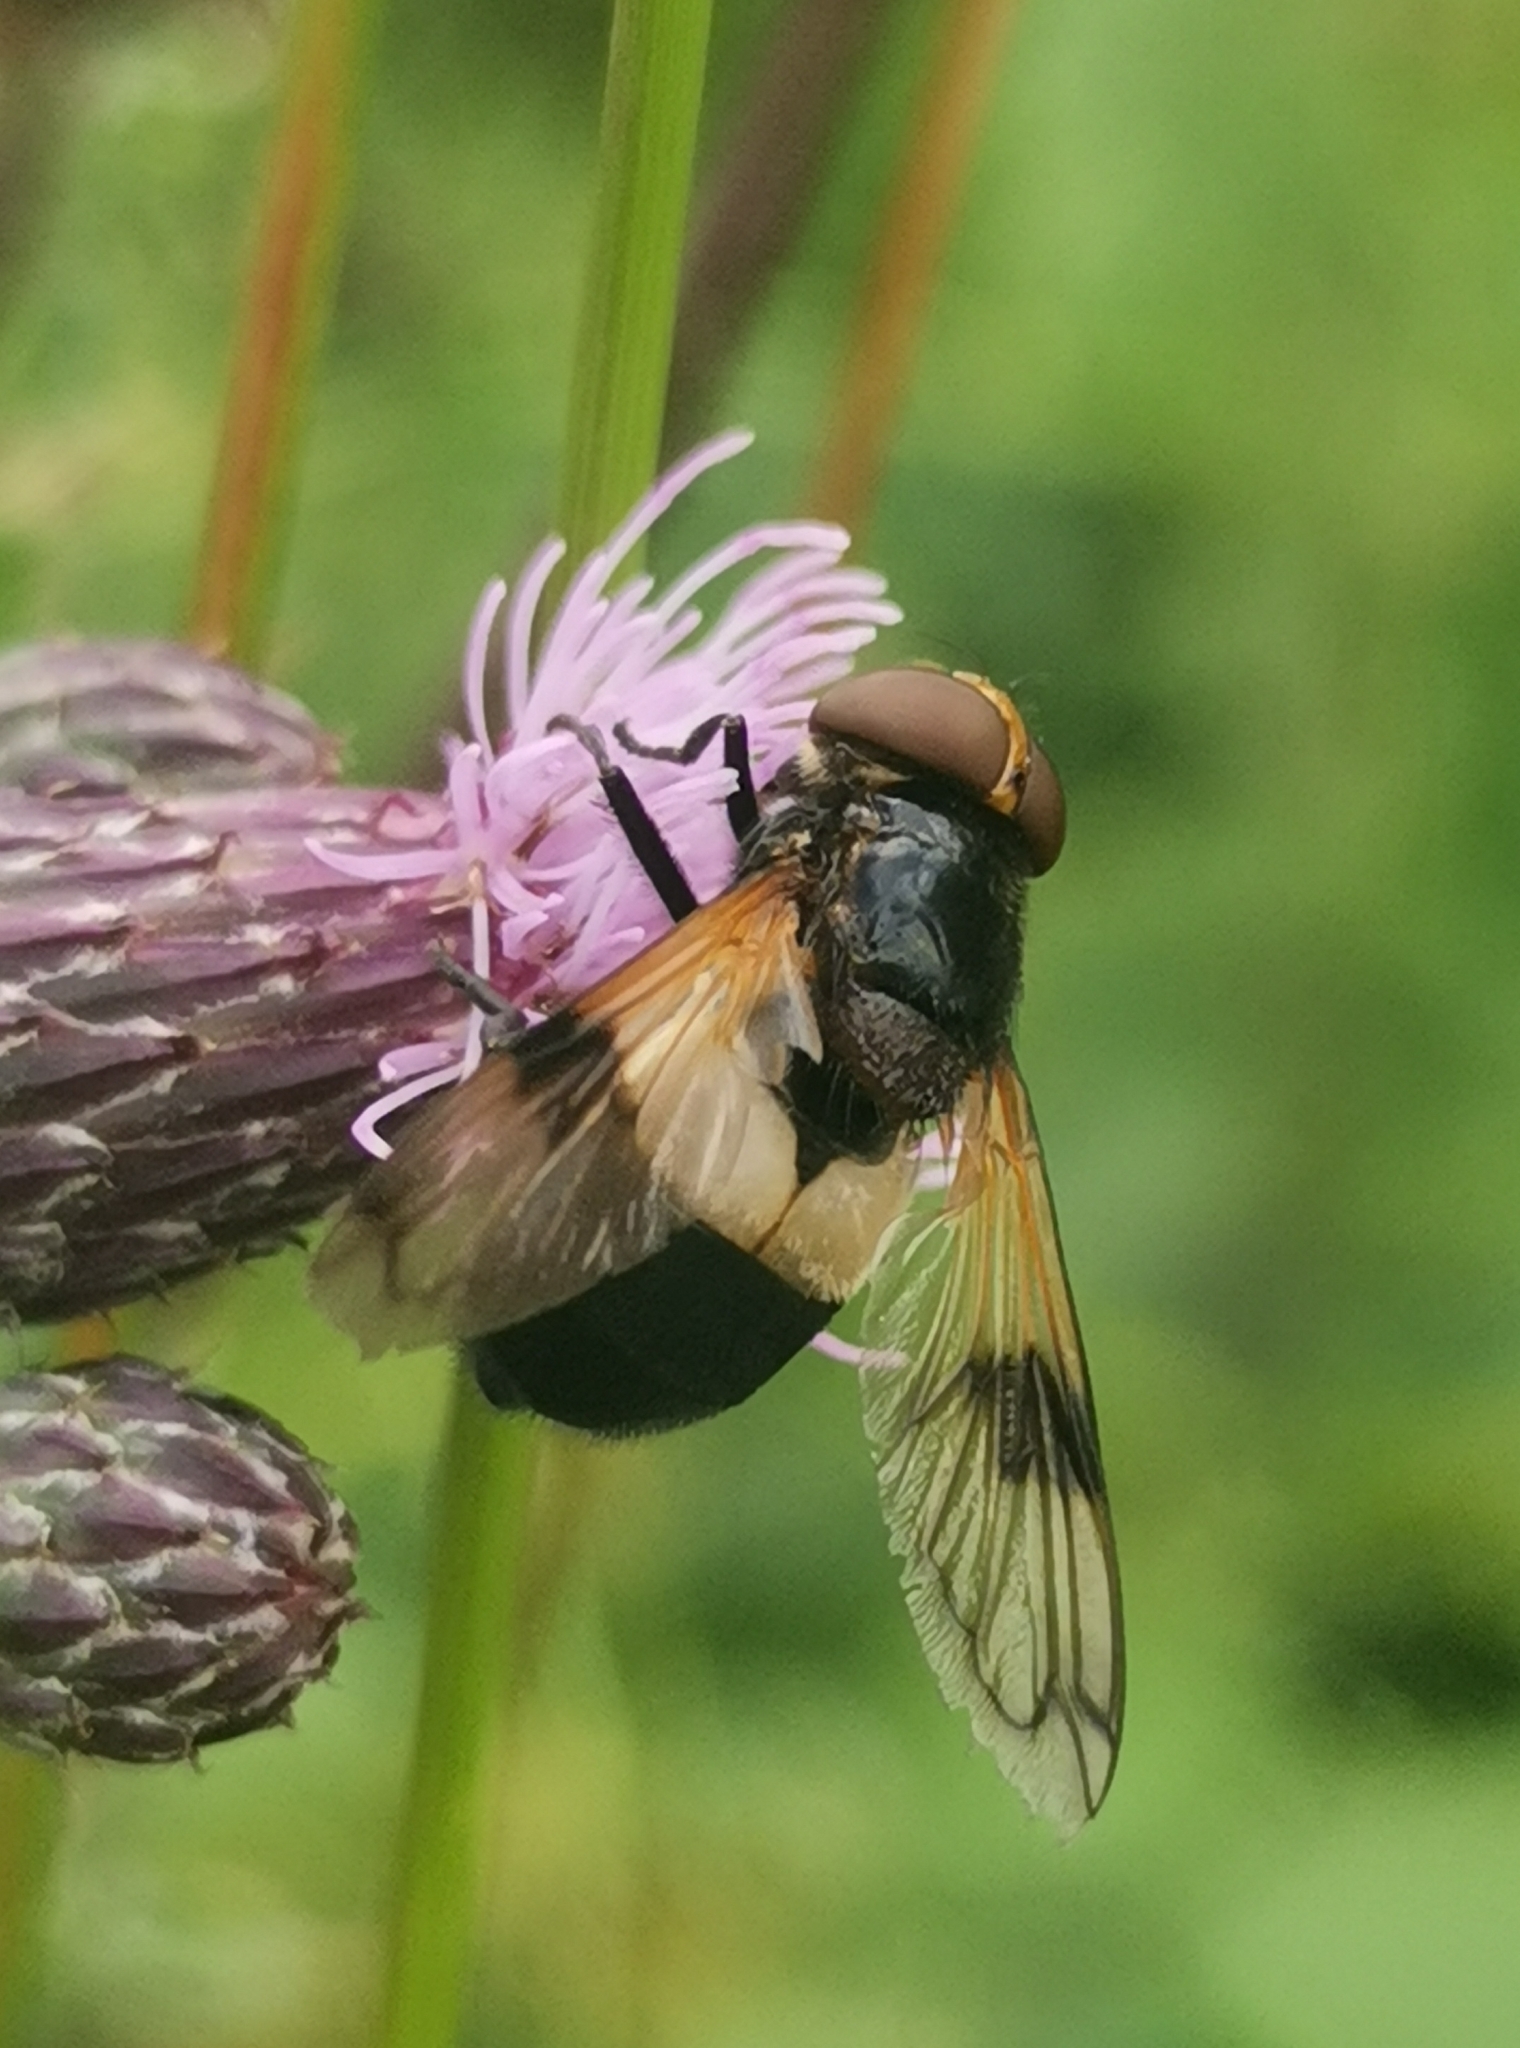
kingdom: Animalia
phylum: Arthropoda
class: Insecta
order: Diptera
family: Syrphidae
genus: Volucella
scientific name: Volucella pellucens
